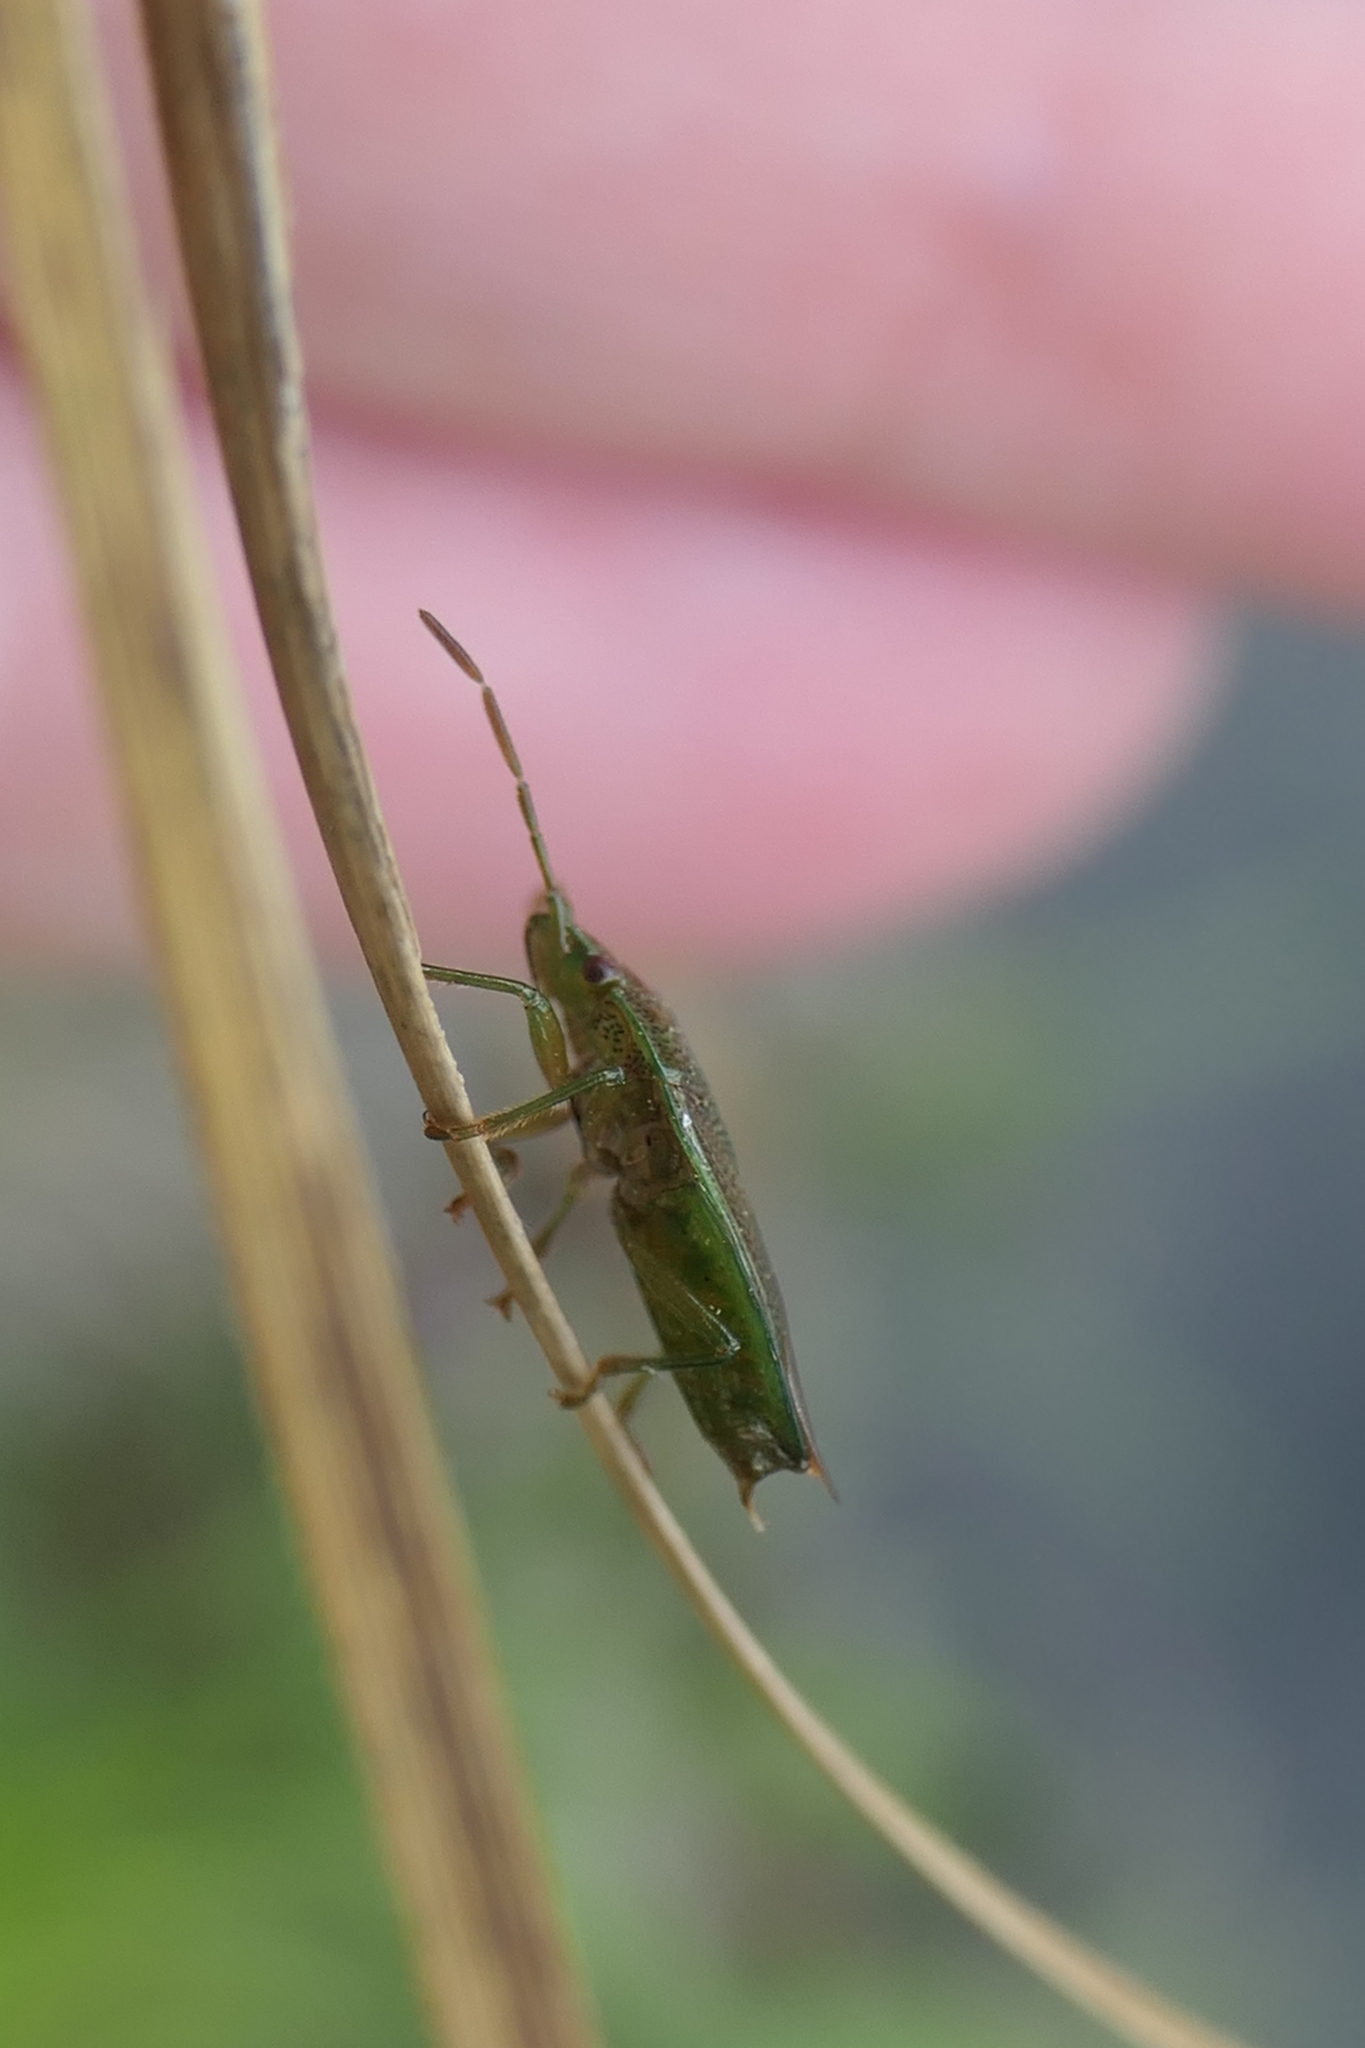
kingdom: Animalia
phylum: Arthropoda
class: Insecta
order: Hemiptera
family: Acanthosomatidae
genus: Rhopalimorpha
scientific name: Rhopalimorpha obscura
